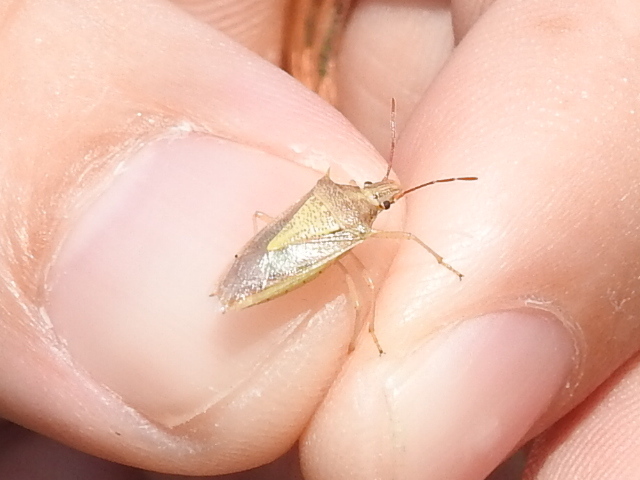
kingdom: Animalia
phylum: Arthropoda
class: Insecta
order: Hemiptera
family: Pentatomidae
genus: Oebalus
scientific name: Oebalus pugnax
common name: Rice stink bug
